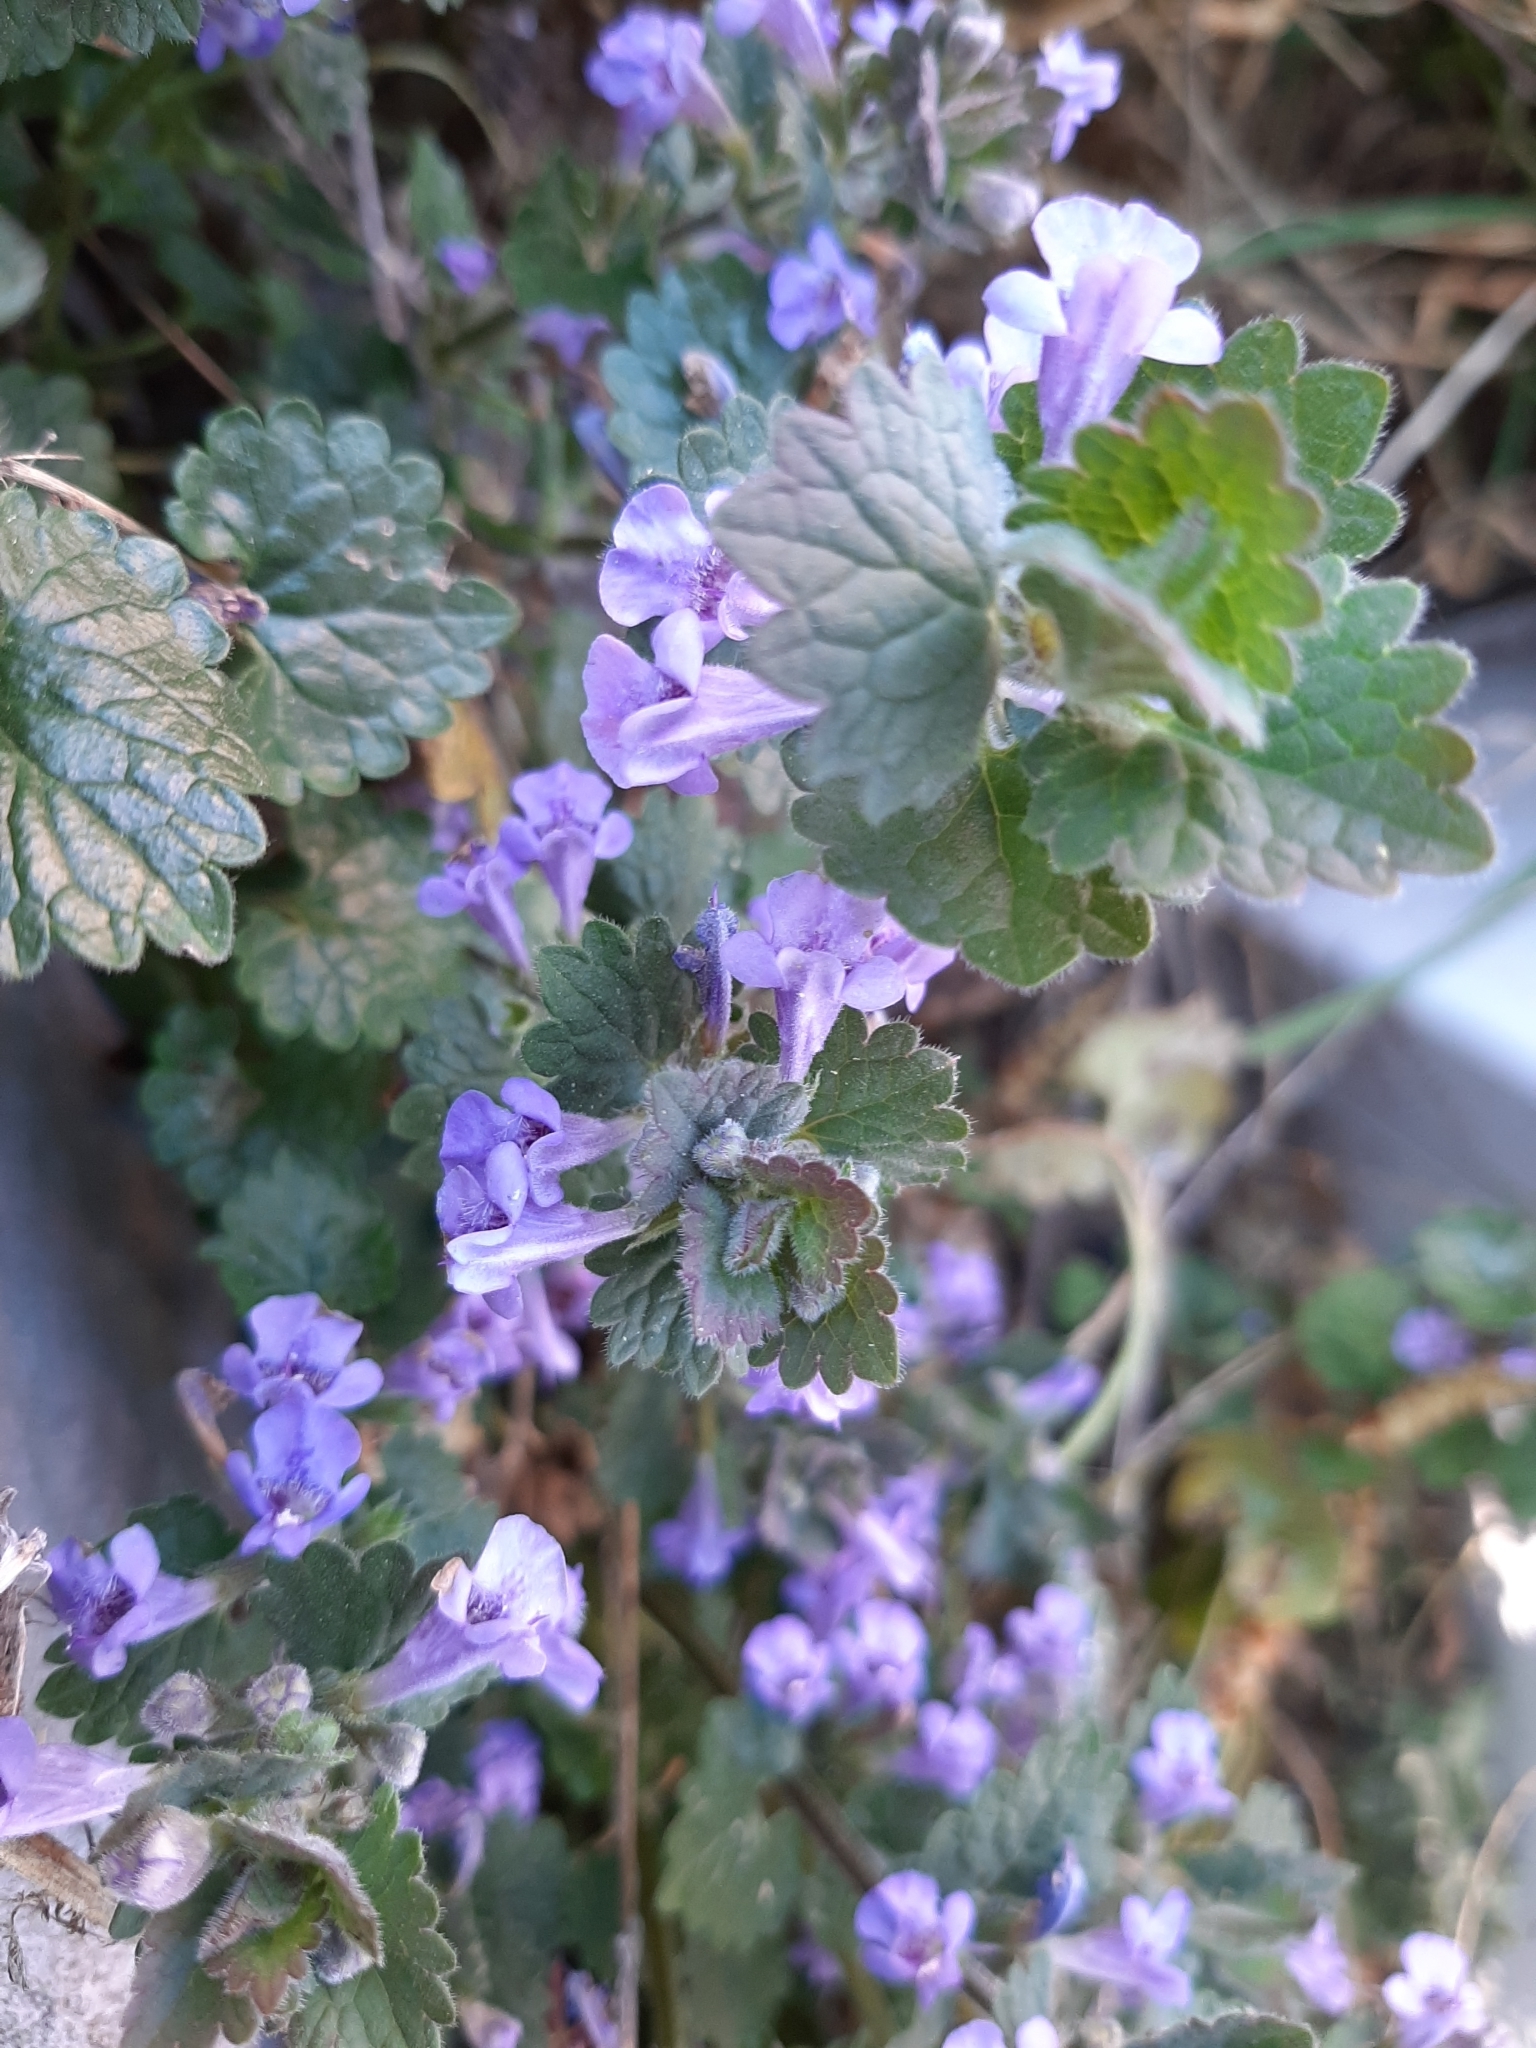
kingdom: Plantae
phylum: Tracheophyta
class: Magnoliopsida
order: Lamiales
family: Lamiaceae
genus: Glechoma
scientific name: Glechoma hederacea
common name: Ground ivy
